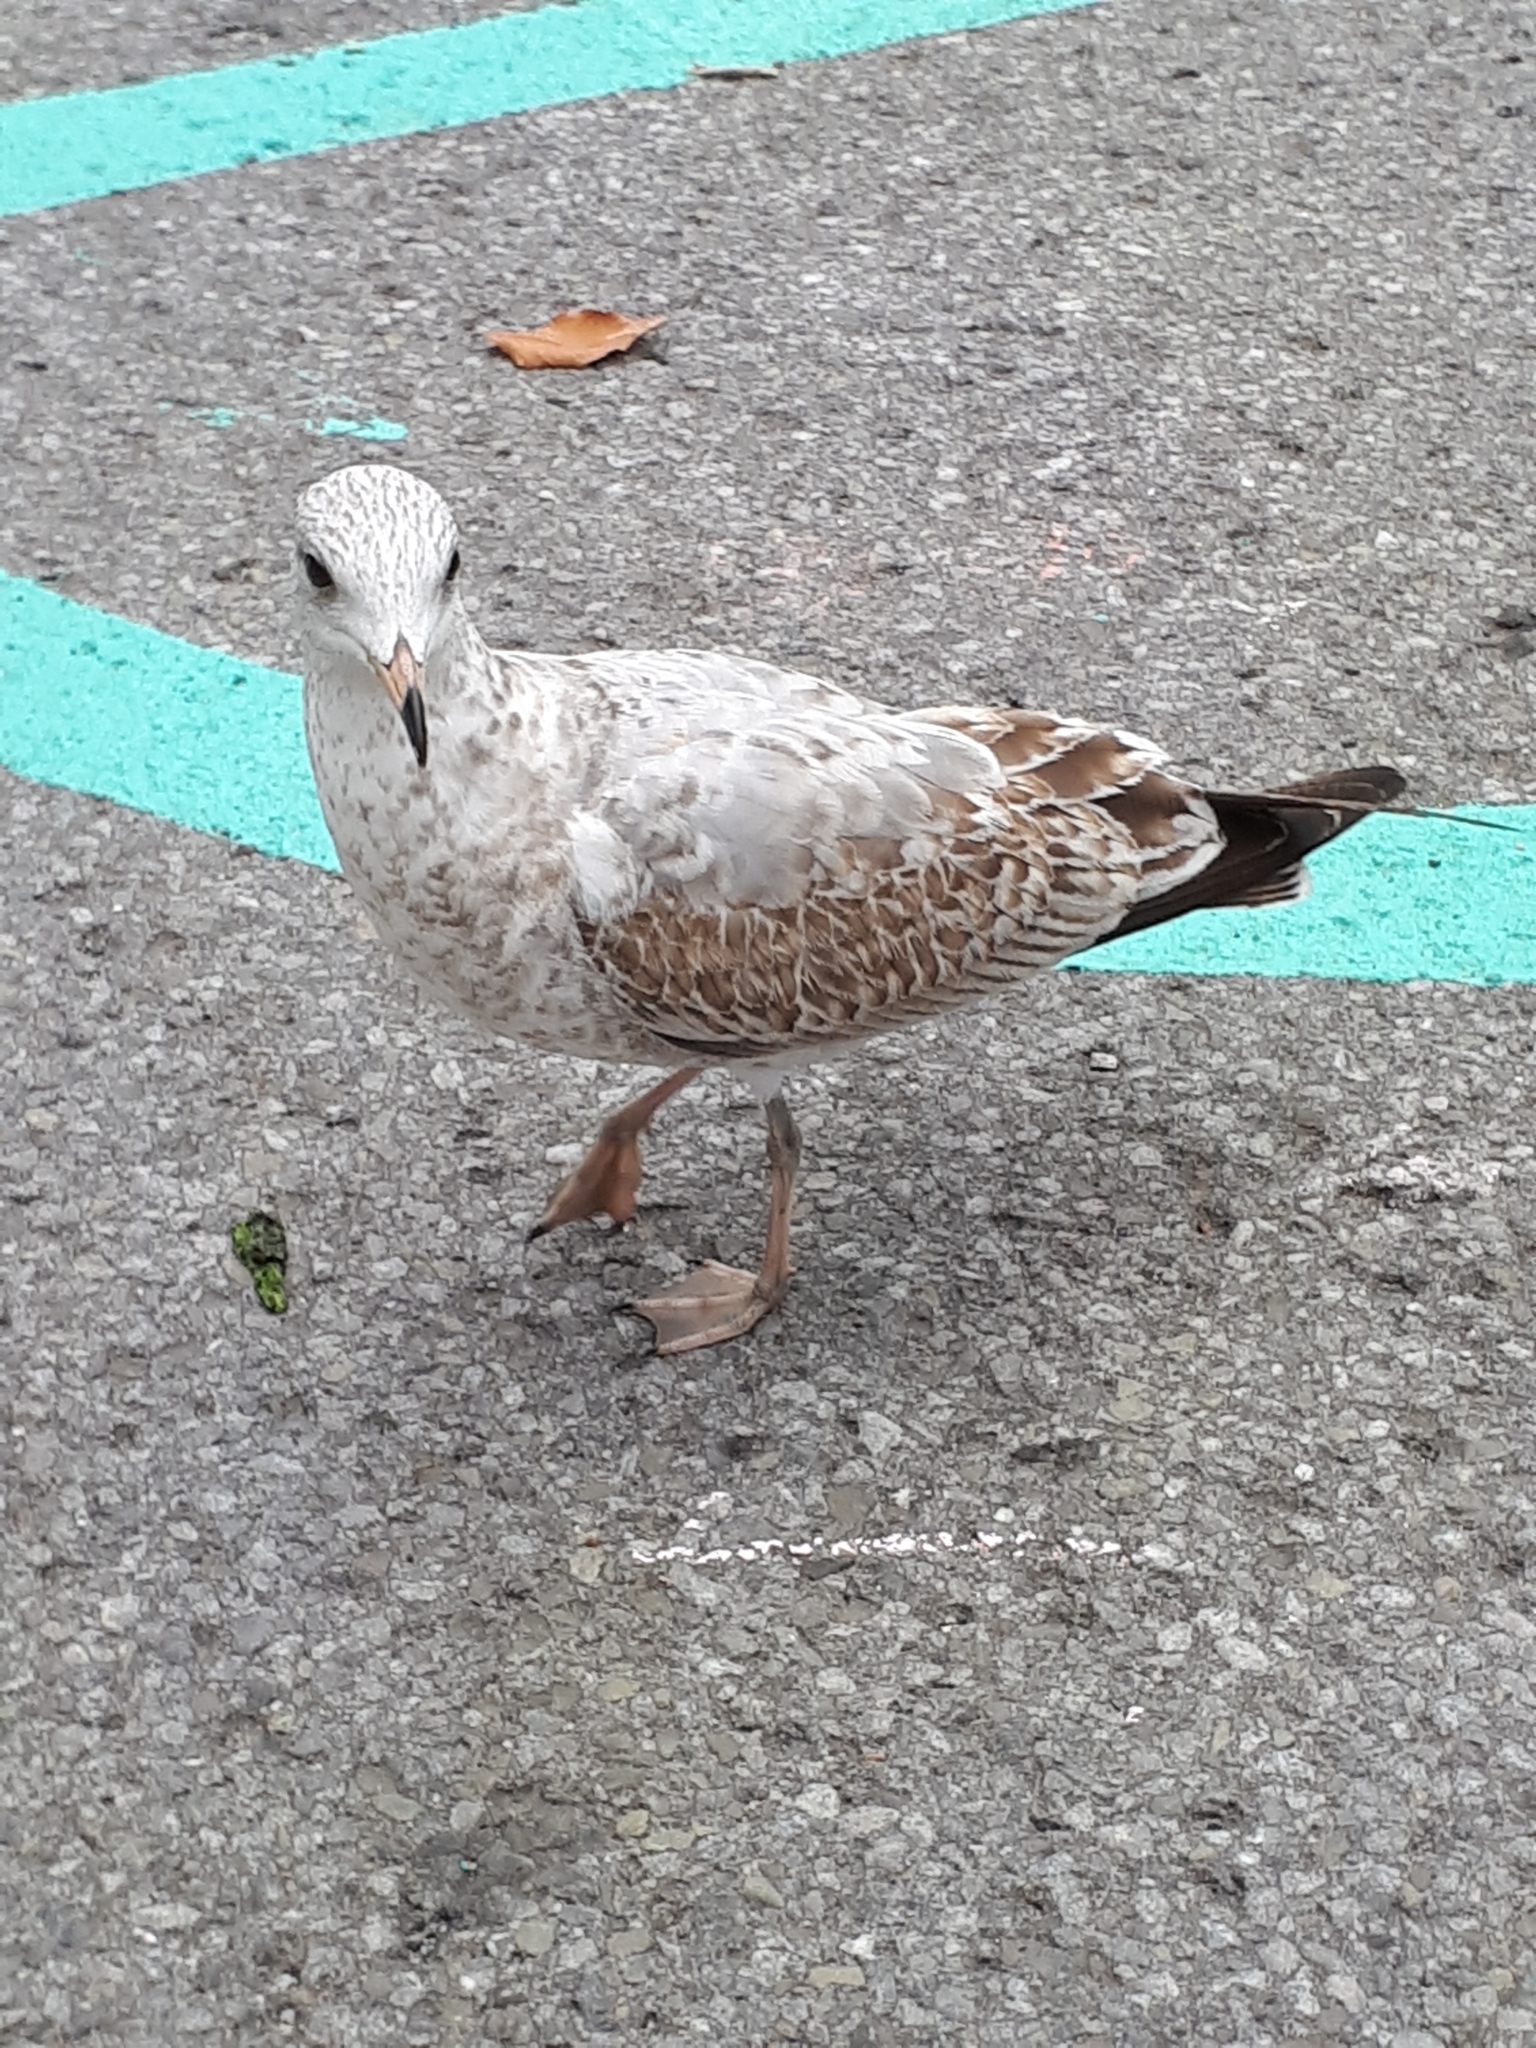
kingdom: Animalia
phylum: Chordata
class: Aves
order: Charadriiformes
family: Laridae
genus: Larus
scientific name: Larus delawarensis
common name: Ring-billed gull
